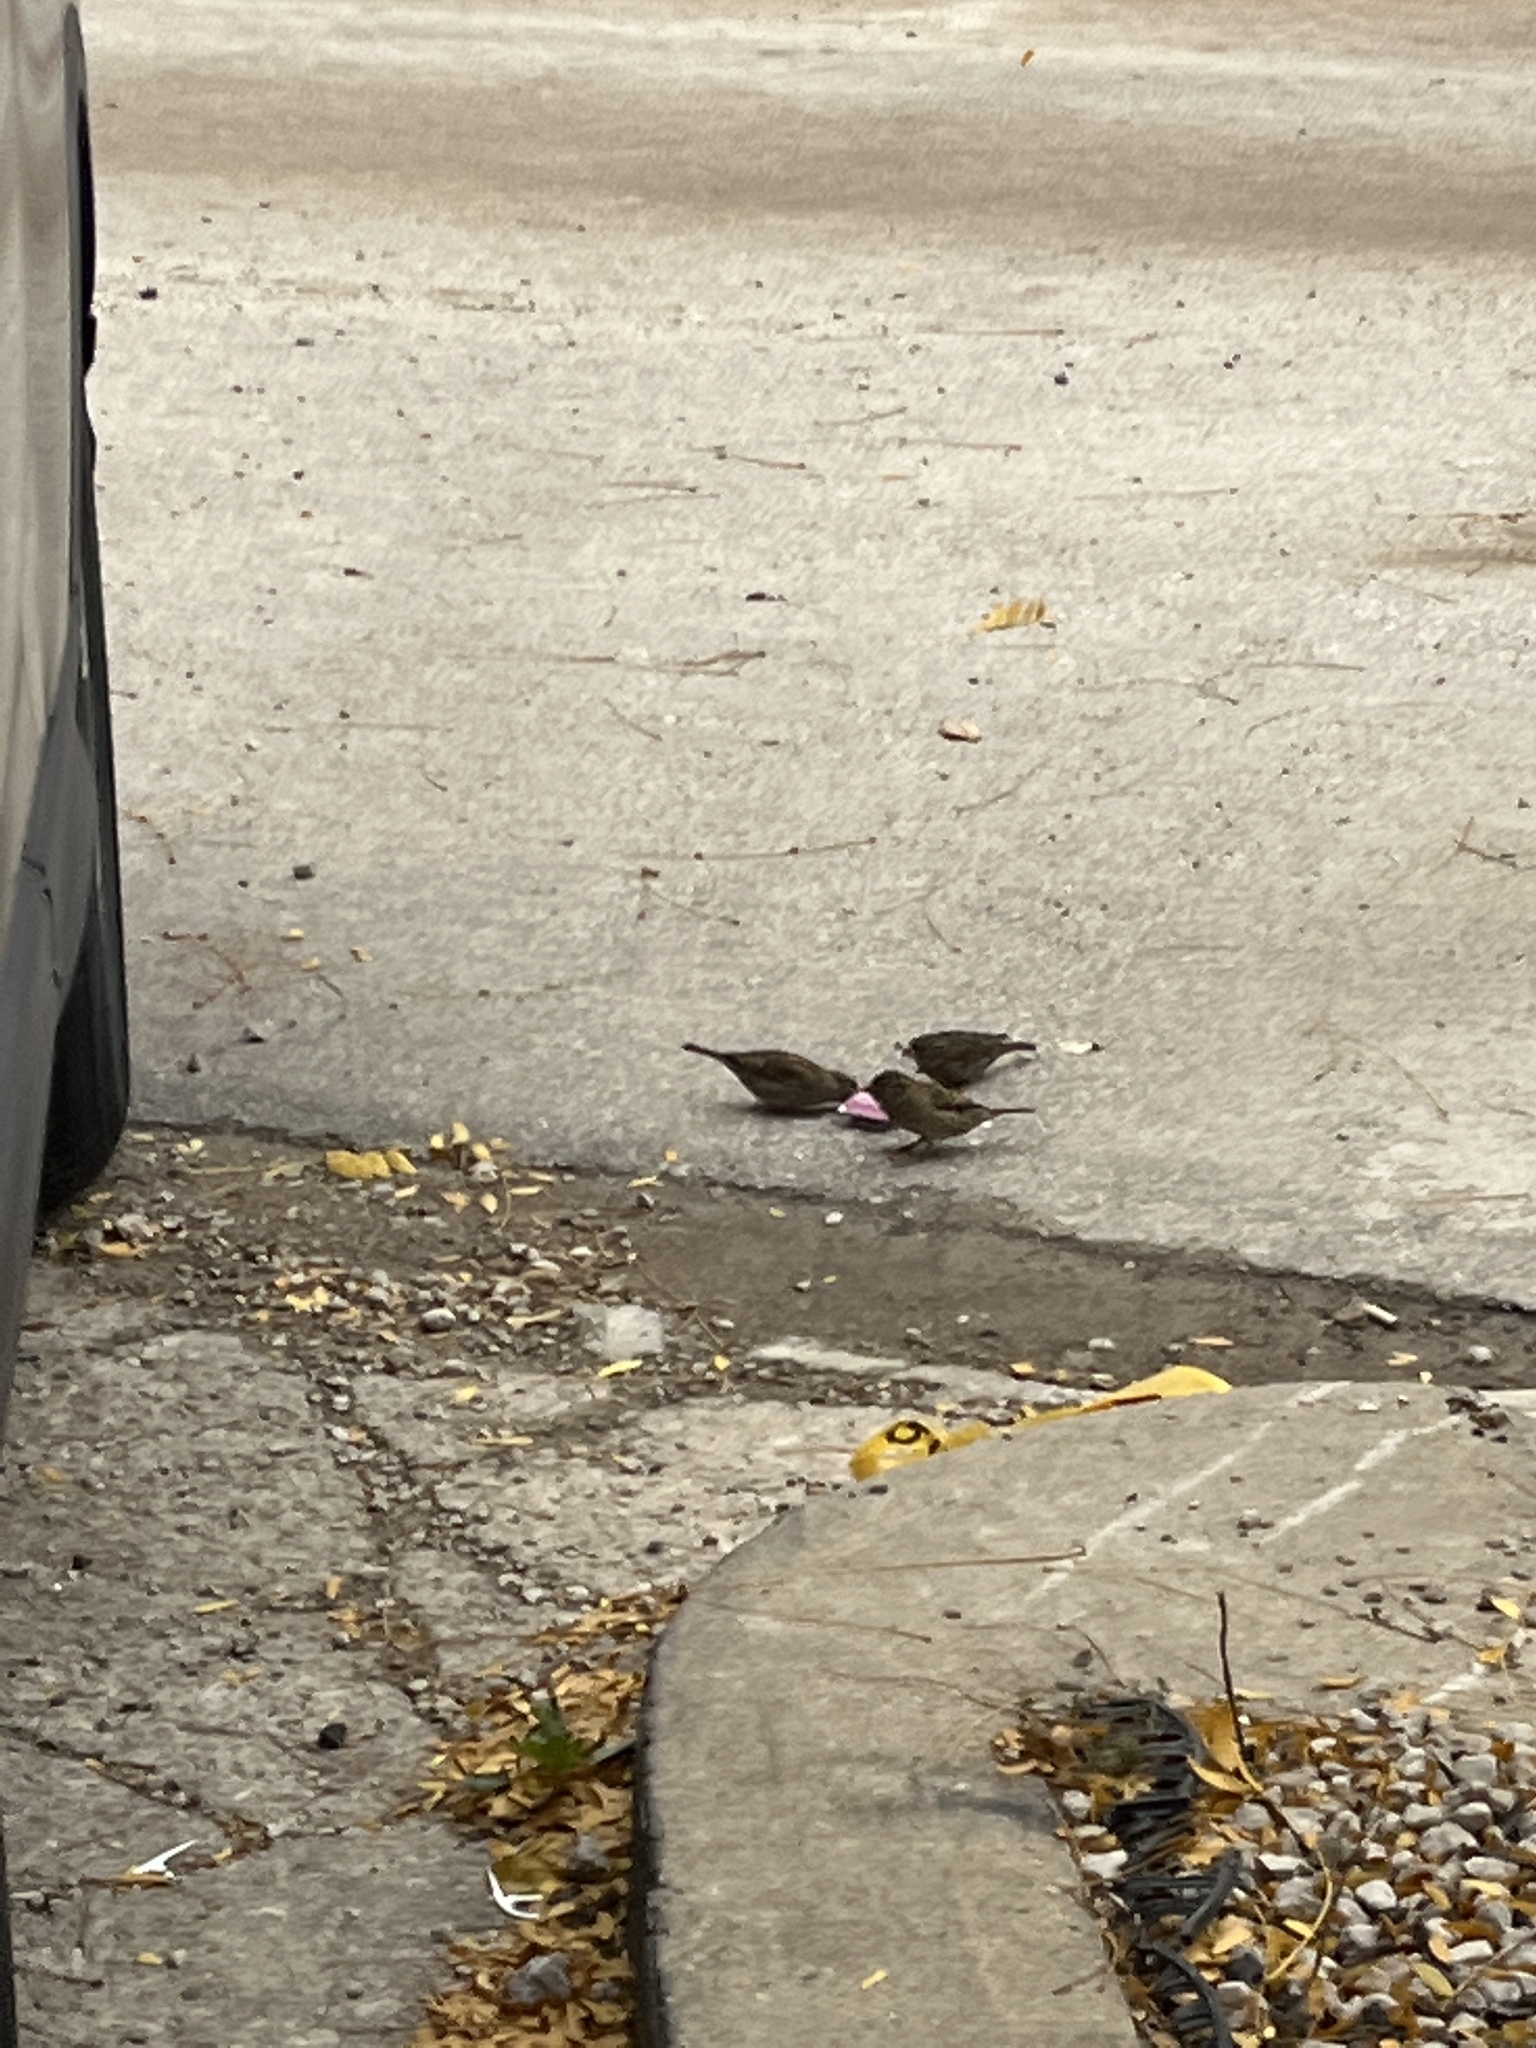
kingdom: Animalia
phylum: Chordata
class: Aves
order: Passeriformes
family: Passeridae
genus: Passer
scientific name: Passer domesticus
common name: House sparrow
